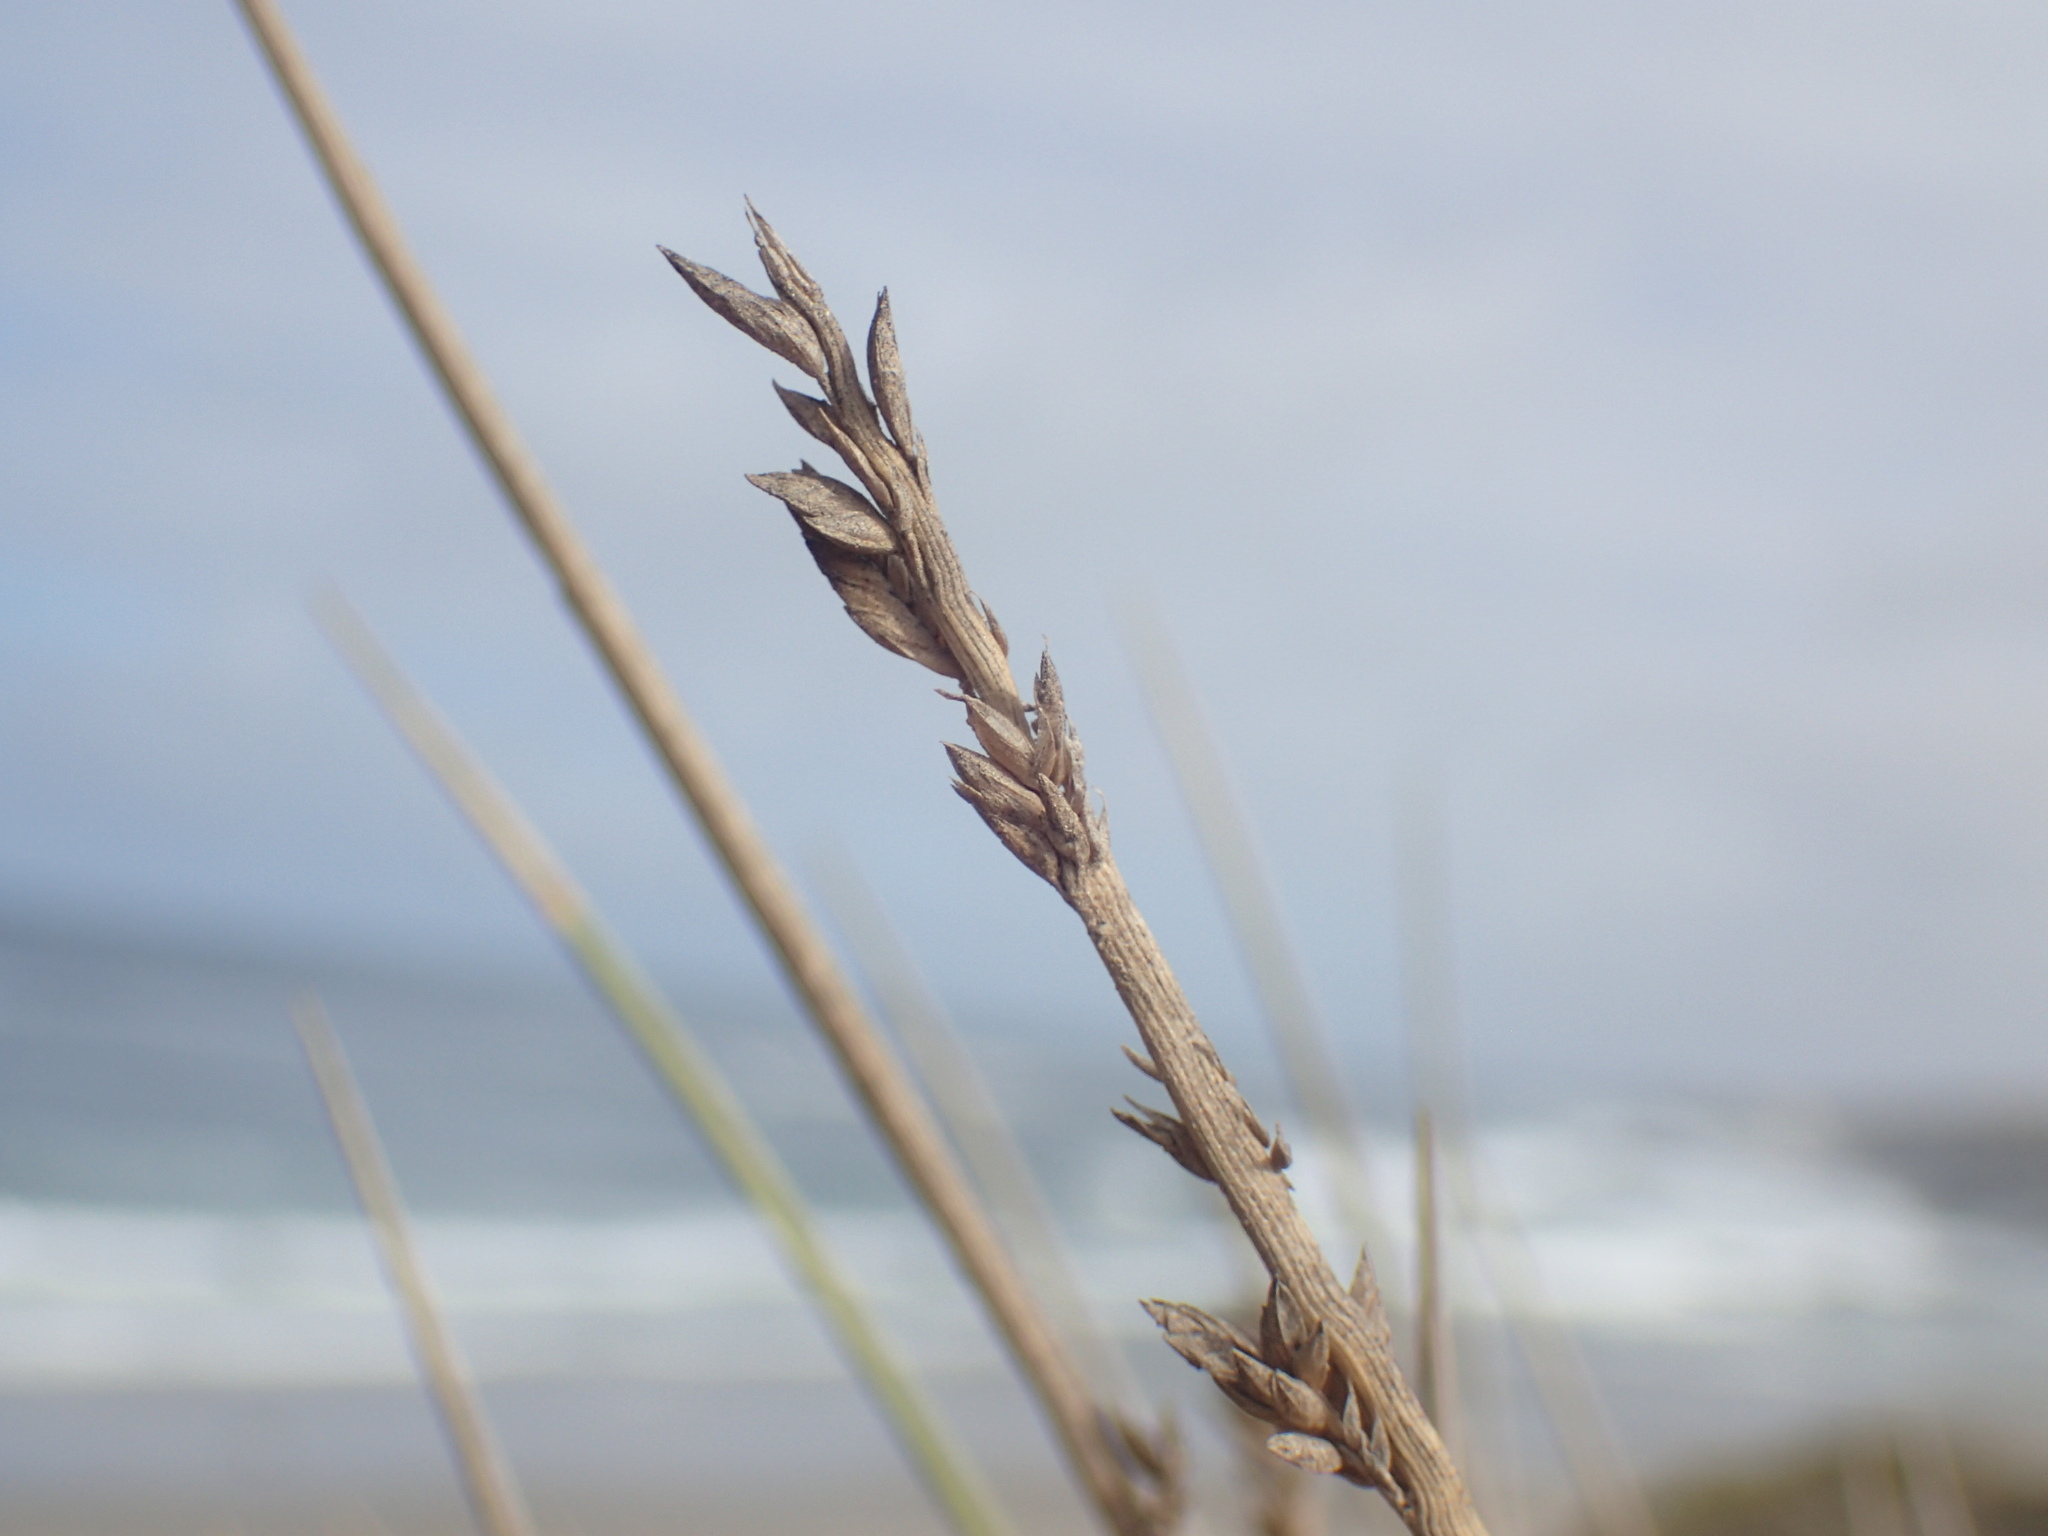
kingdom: Plantae
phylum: Tracheophyta
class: Liliopsida
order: Poales
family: Poaceae
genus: Cladoraphis
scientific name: Cladoraphis cyperoides
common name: Bristly lovegrass
